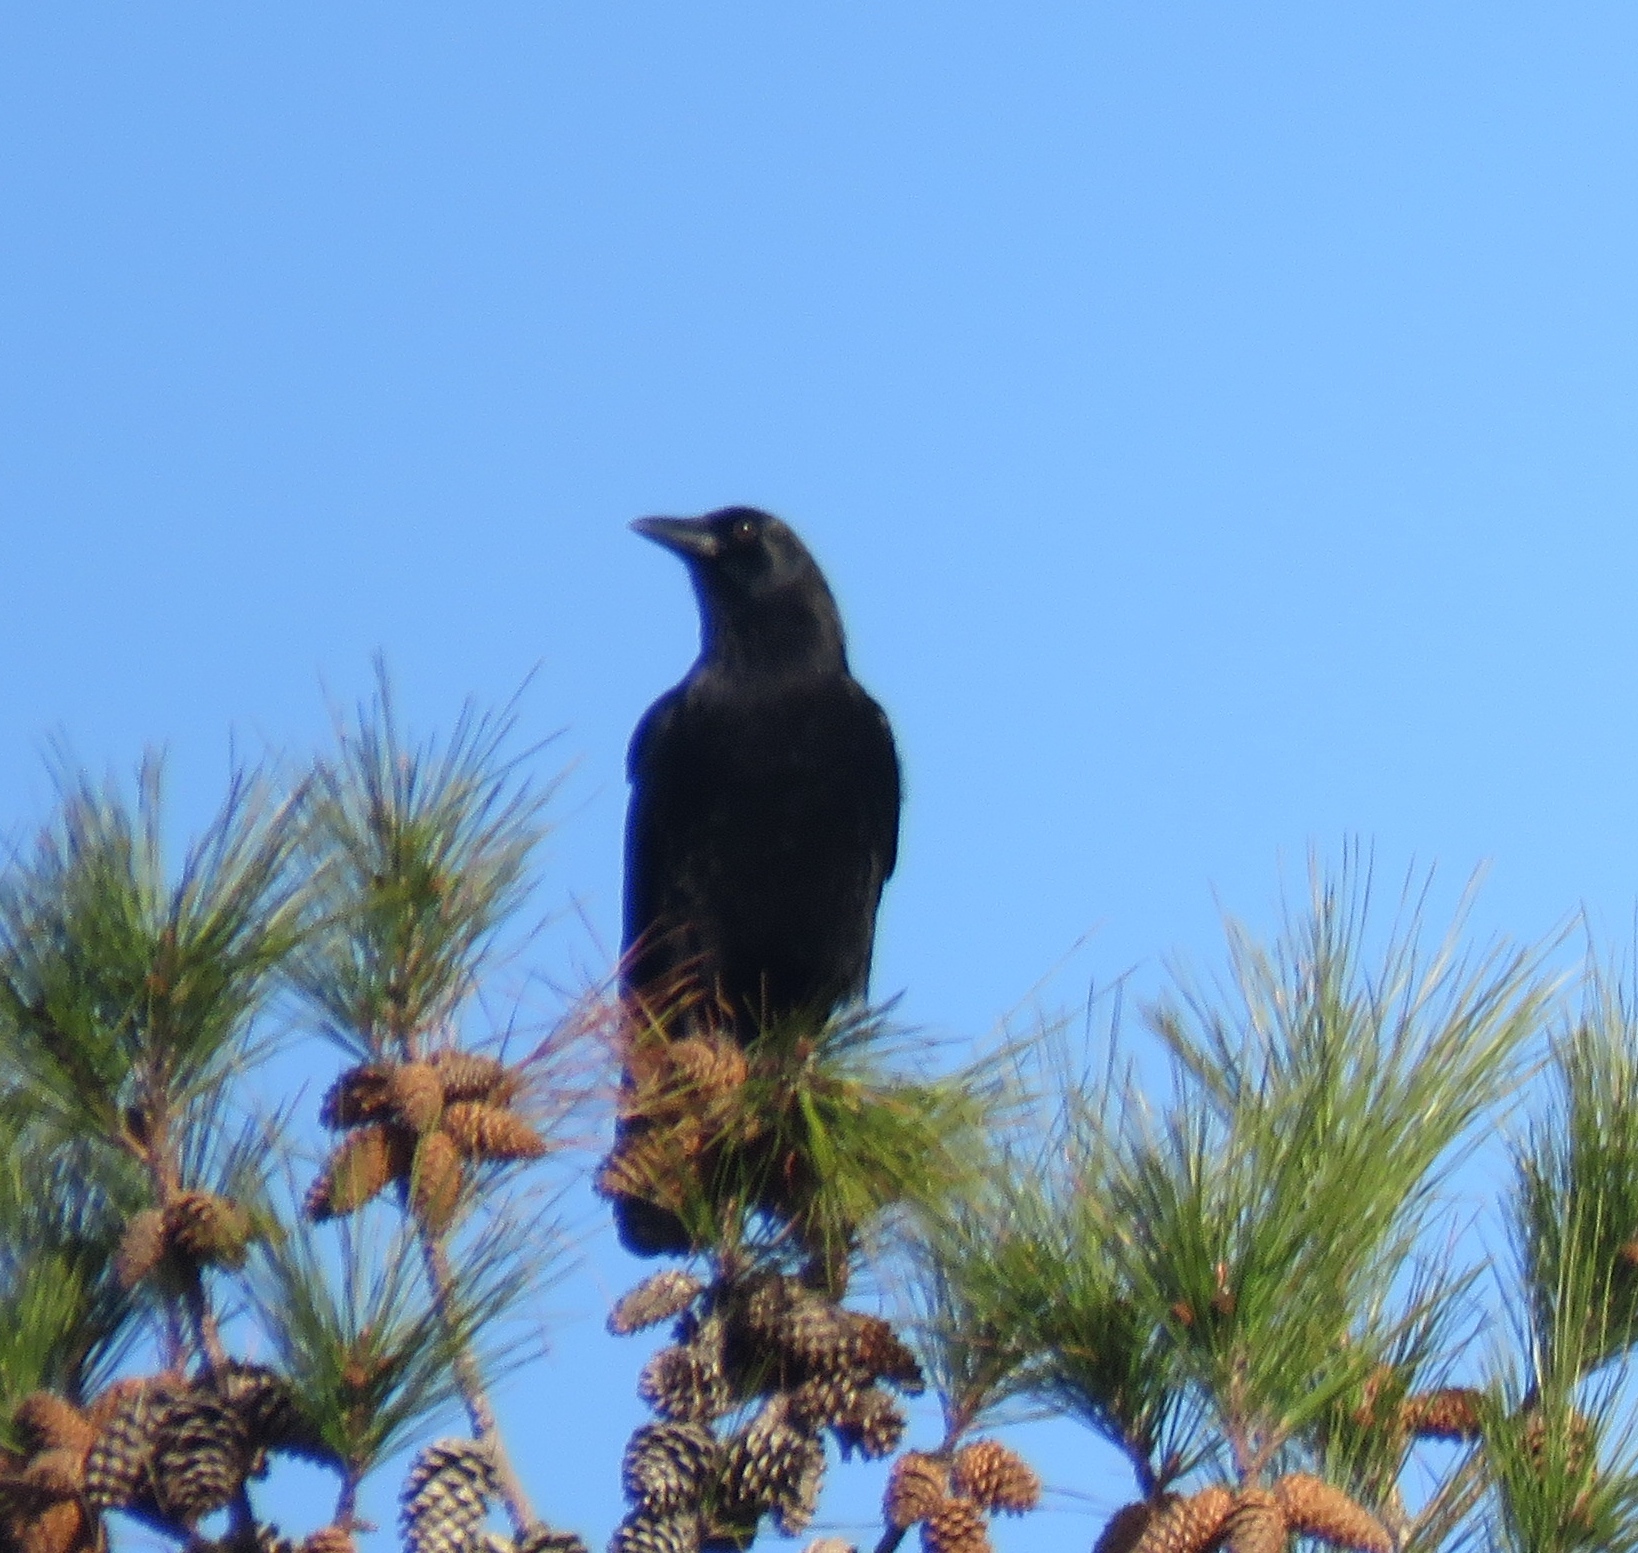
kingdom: Animalia
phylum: Chordata
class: Aves
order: Passeriformes
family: Corvidae
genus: Corvus
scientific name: Corvus brachyrhynchos
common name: American crow
